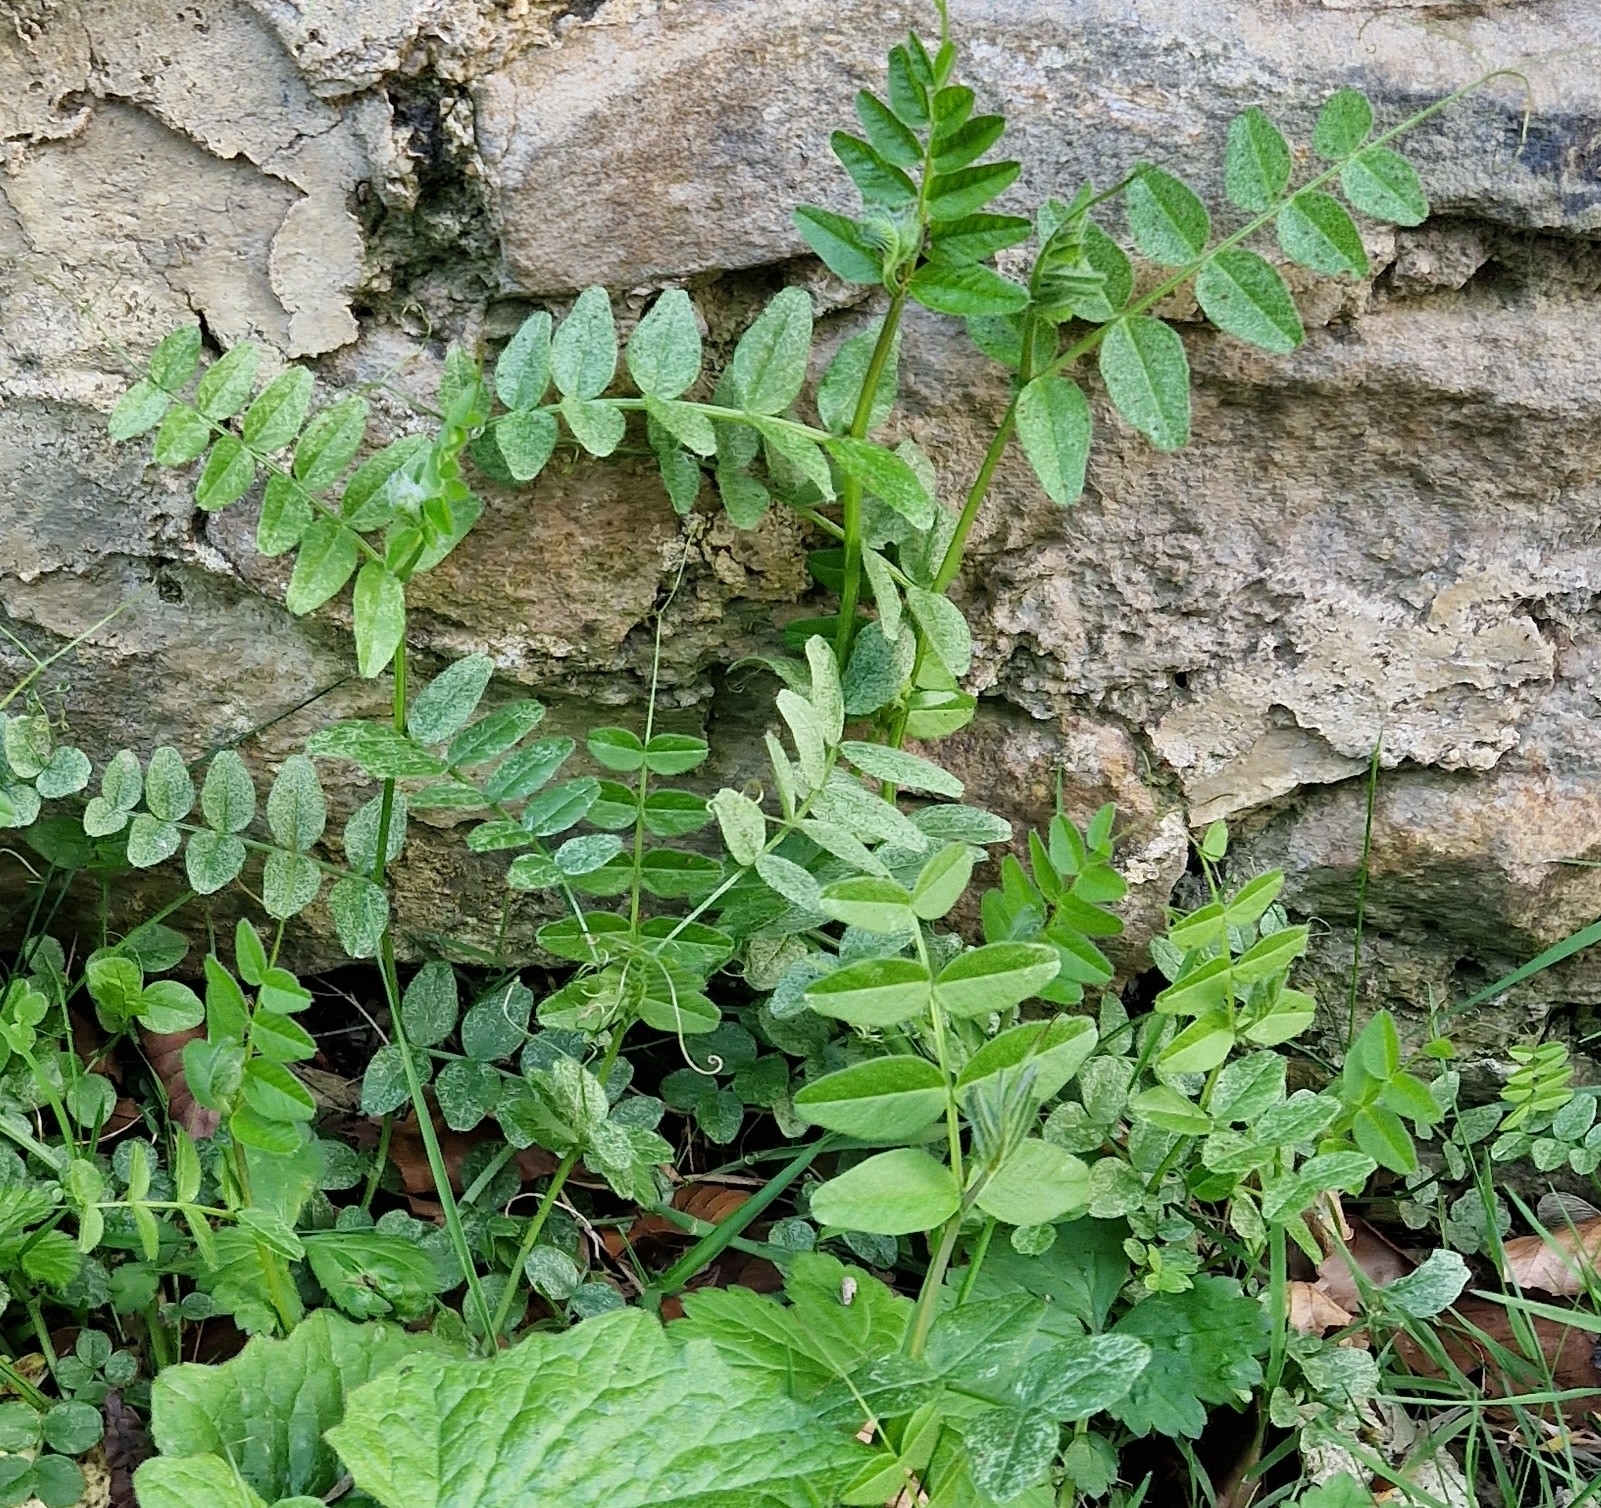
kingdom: Plantae
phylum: Tracheophyta
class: Magnoliopsida
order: Fabales
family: Fabaceae
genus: Vicia
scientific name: Vicia sepium
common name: Bush vetch
